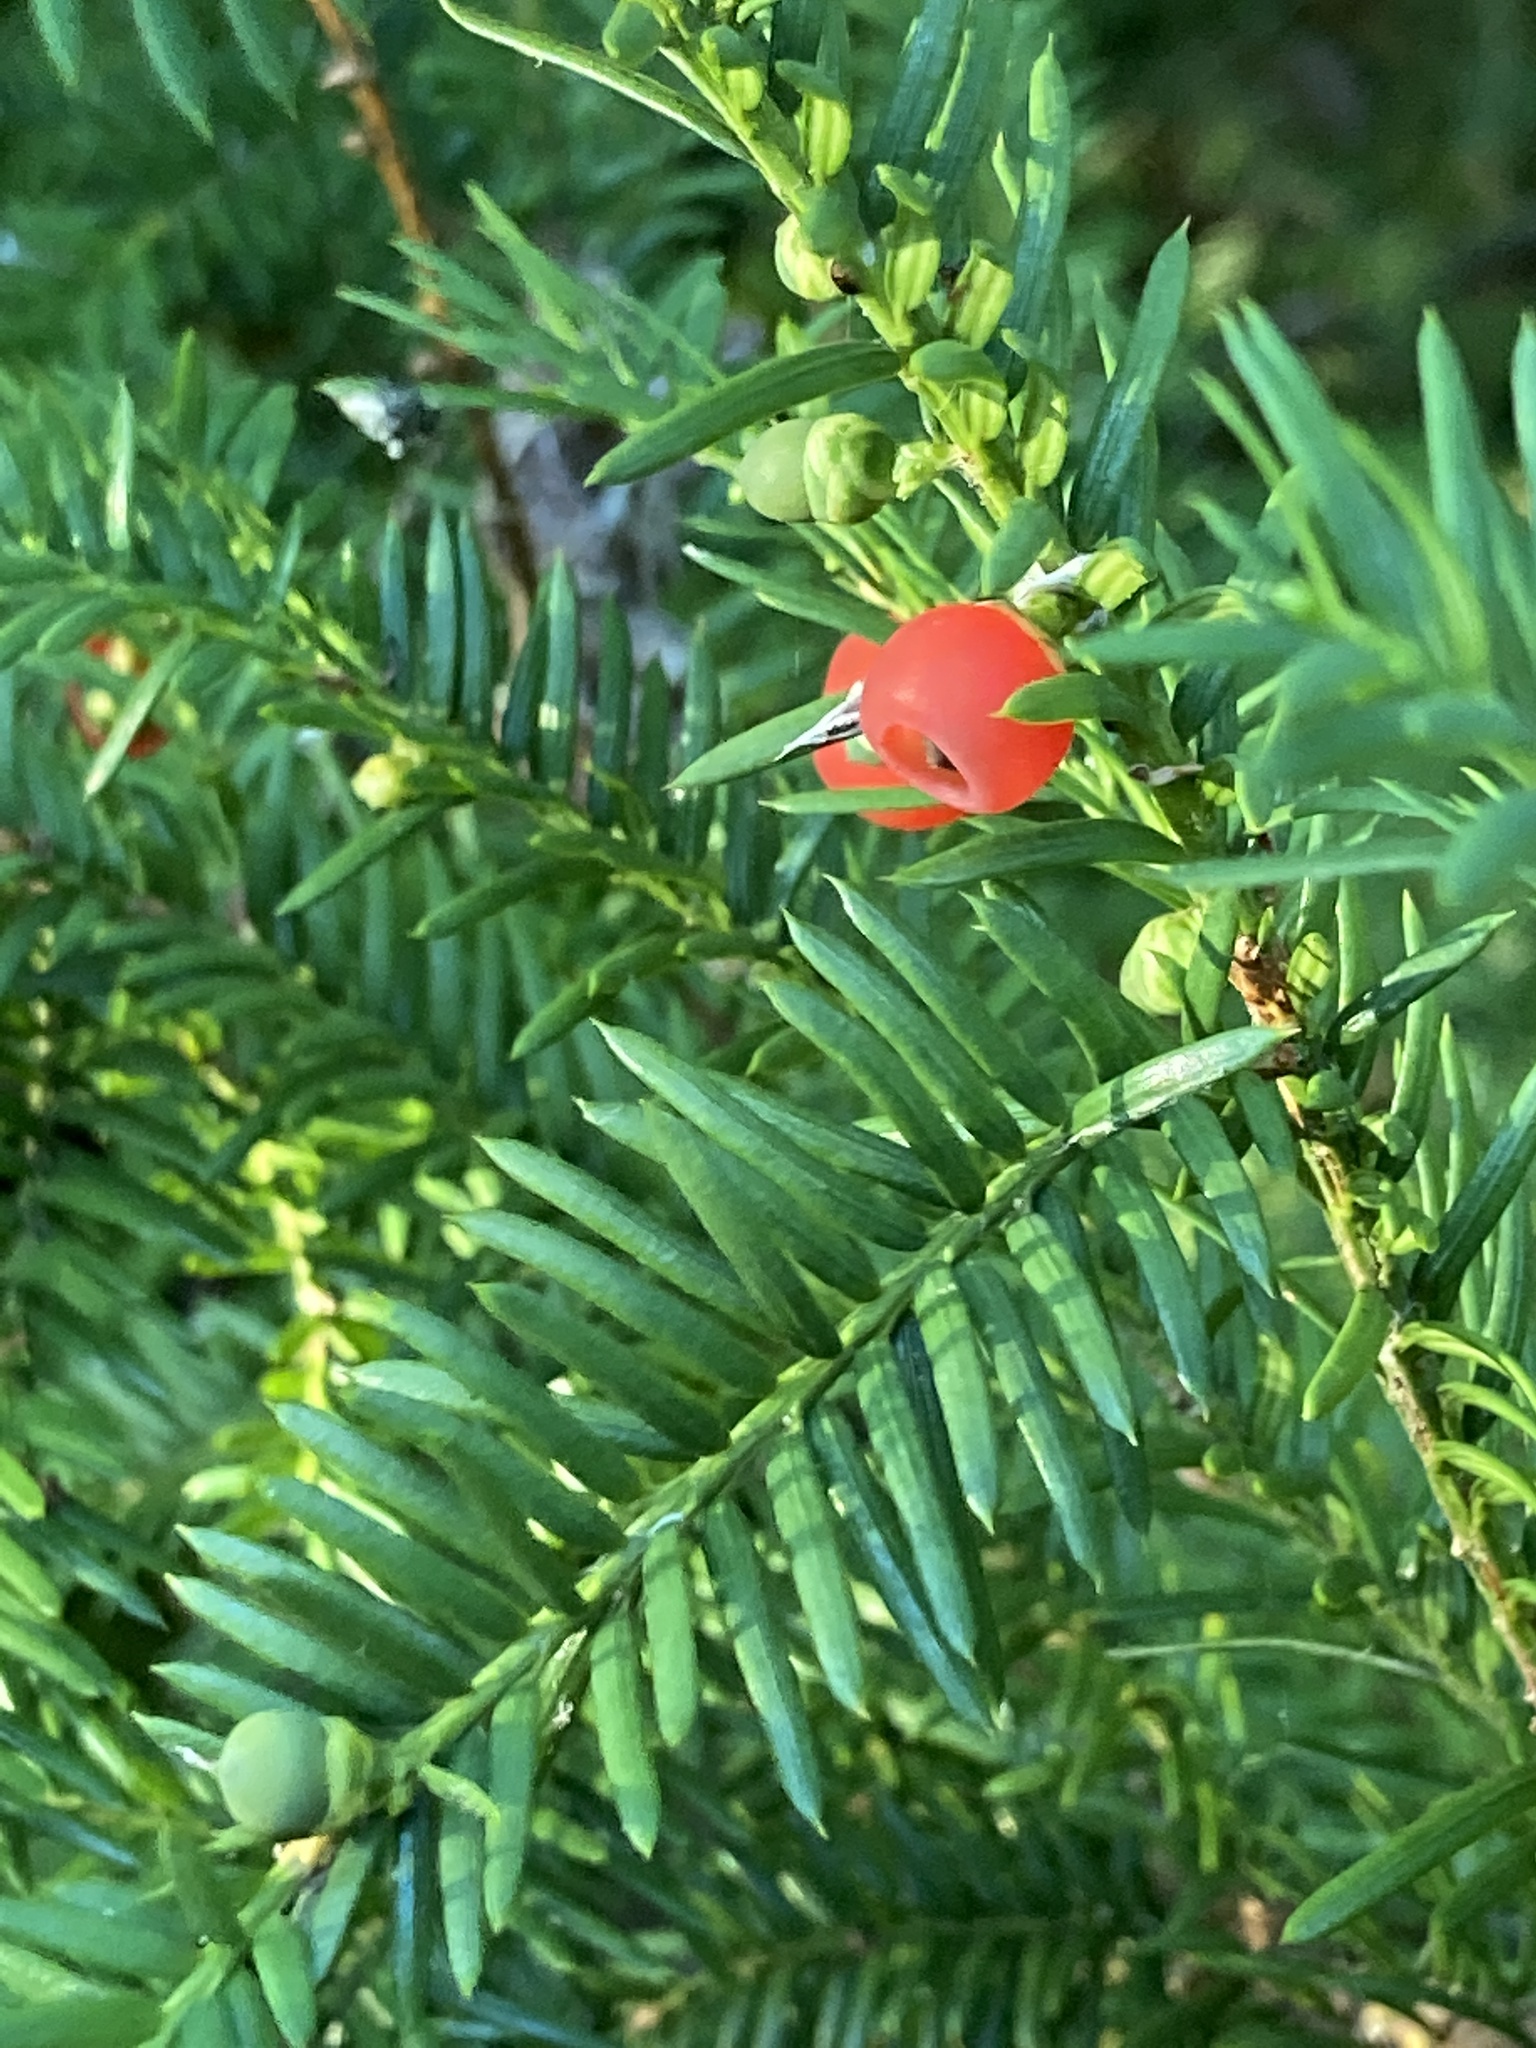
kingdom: Plantae
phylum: Tracheophyta
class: Pinopsida
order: Pinales
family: Taxaceae
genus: Taxus
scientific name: Taxus canadensis
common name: American yew
